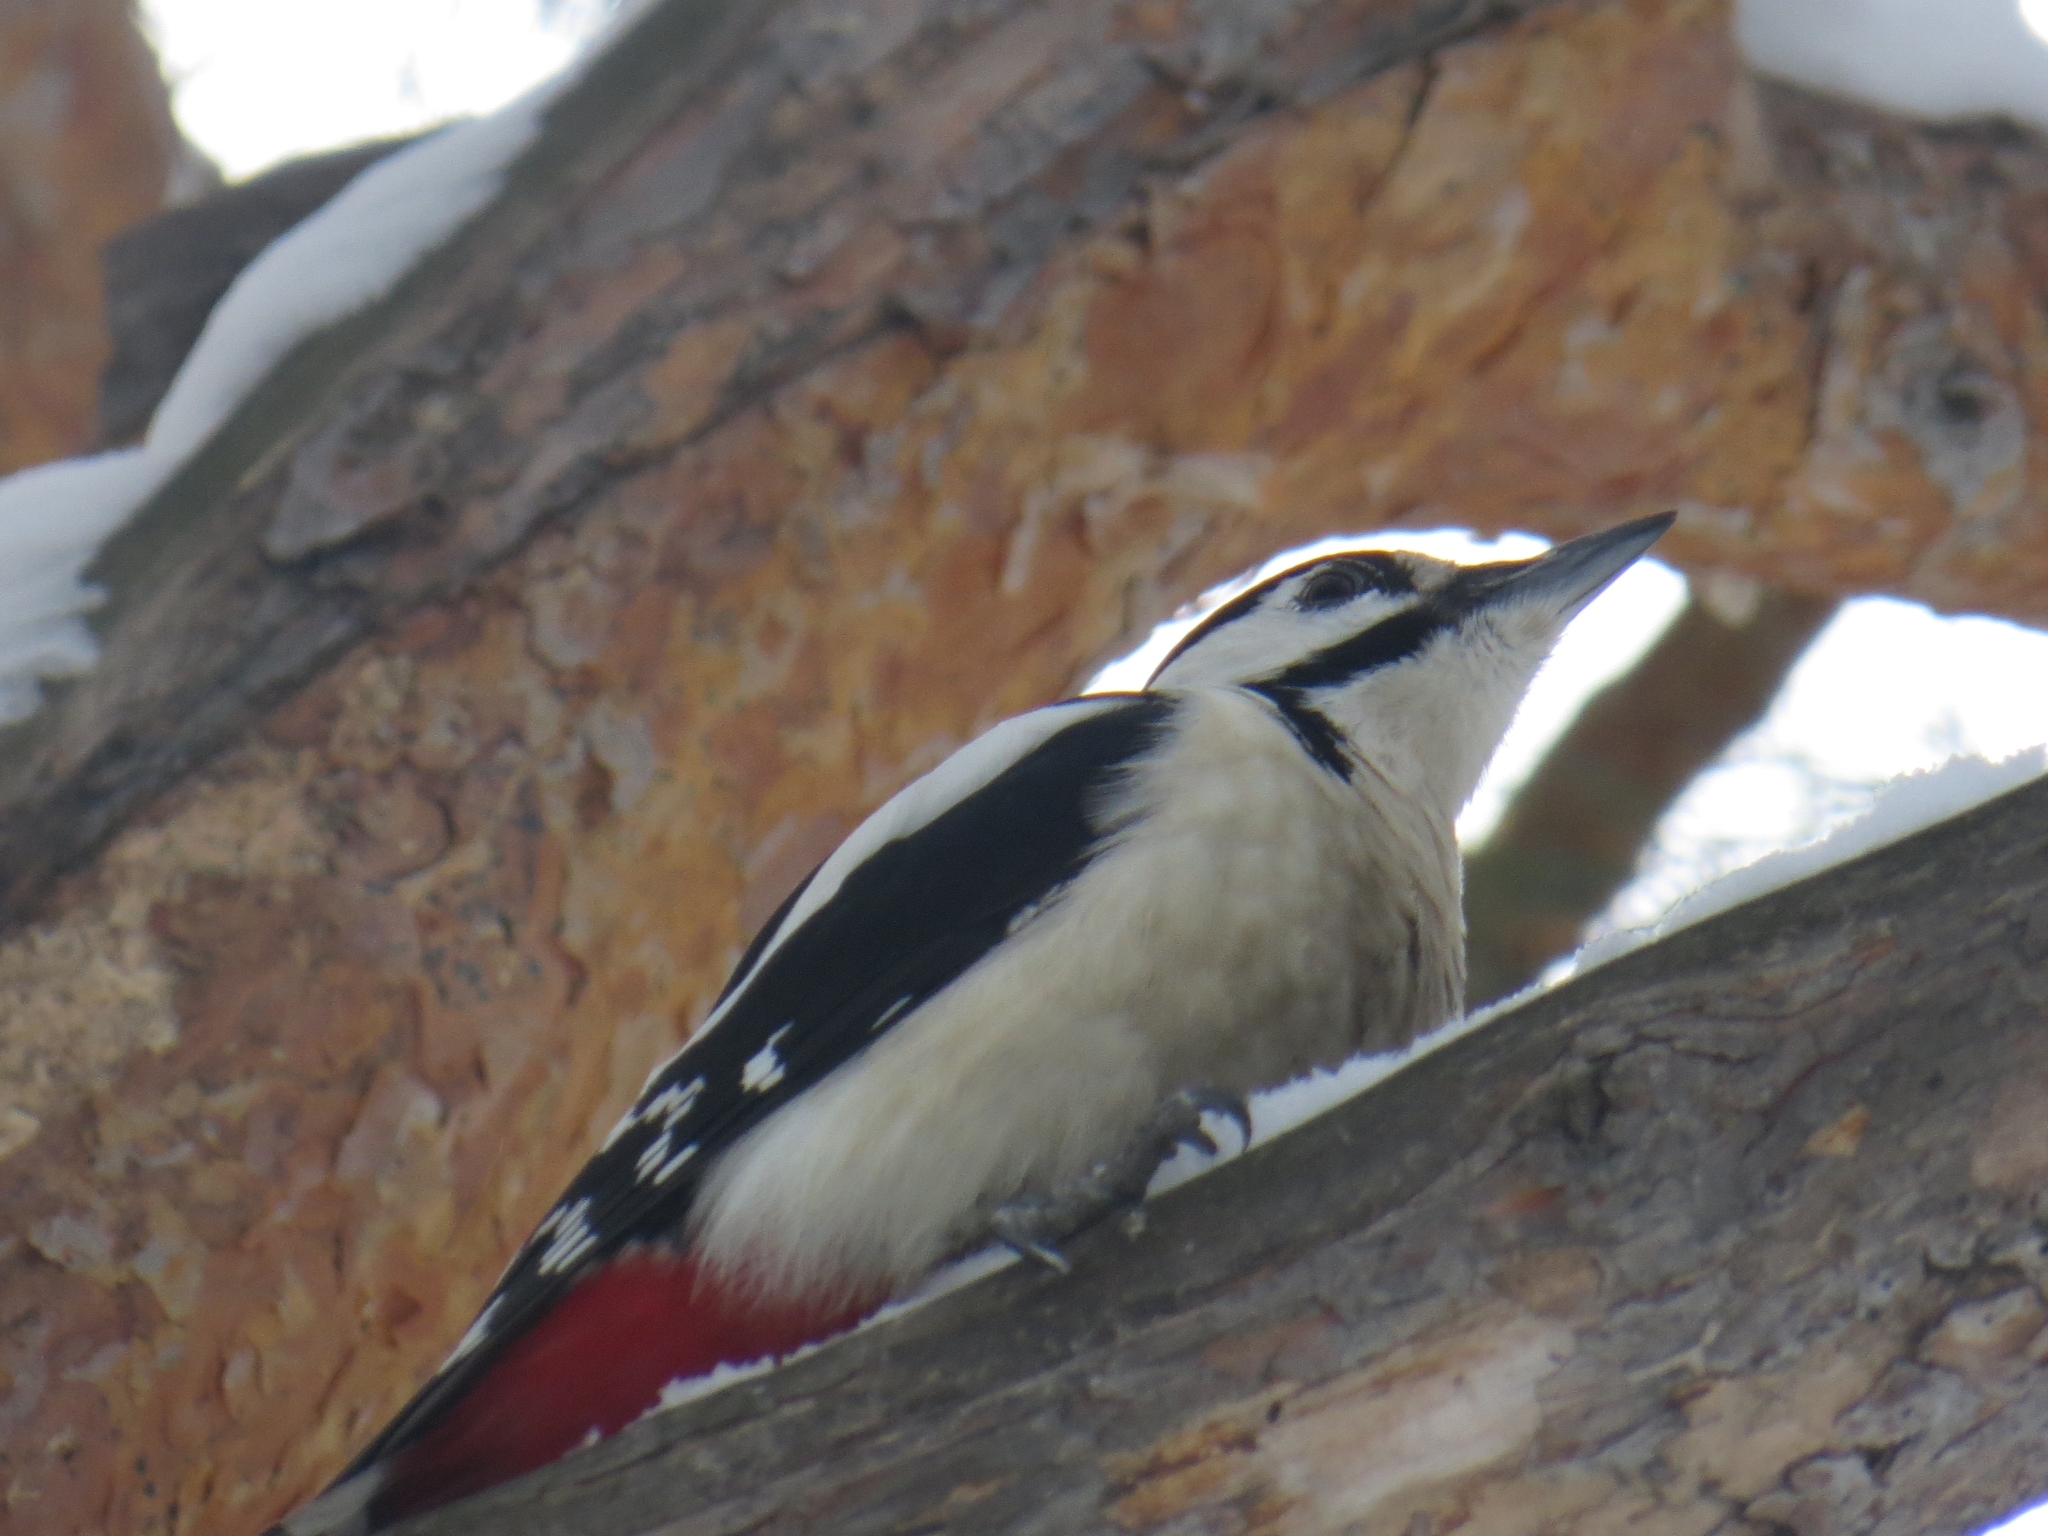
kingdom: Animalia
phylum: Chordata
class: Aves
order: Piciformes
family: Picidae
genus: Dendrocopos
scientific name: Dendrocopos major
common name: Great spotted woodpecker
